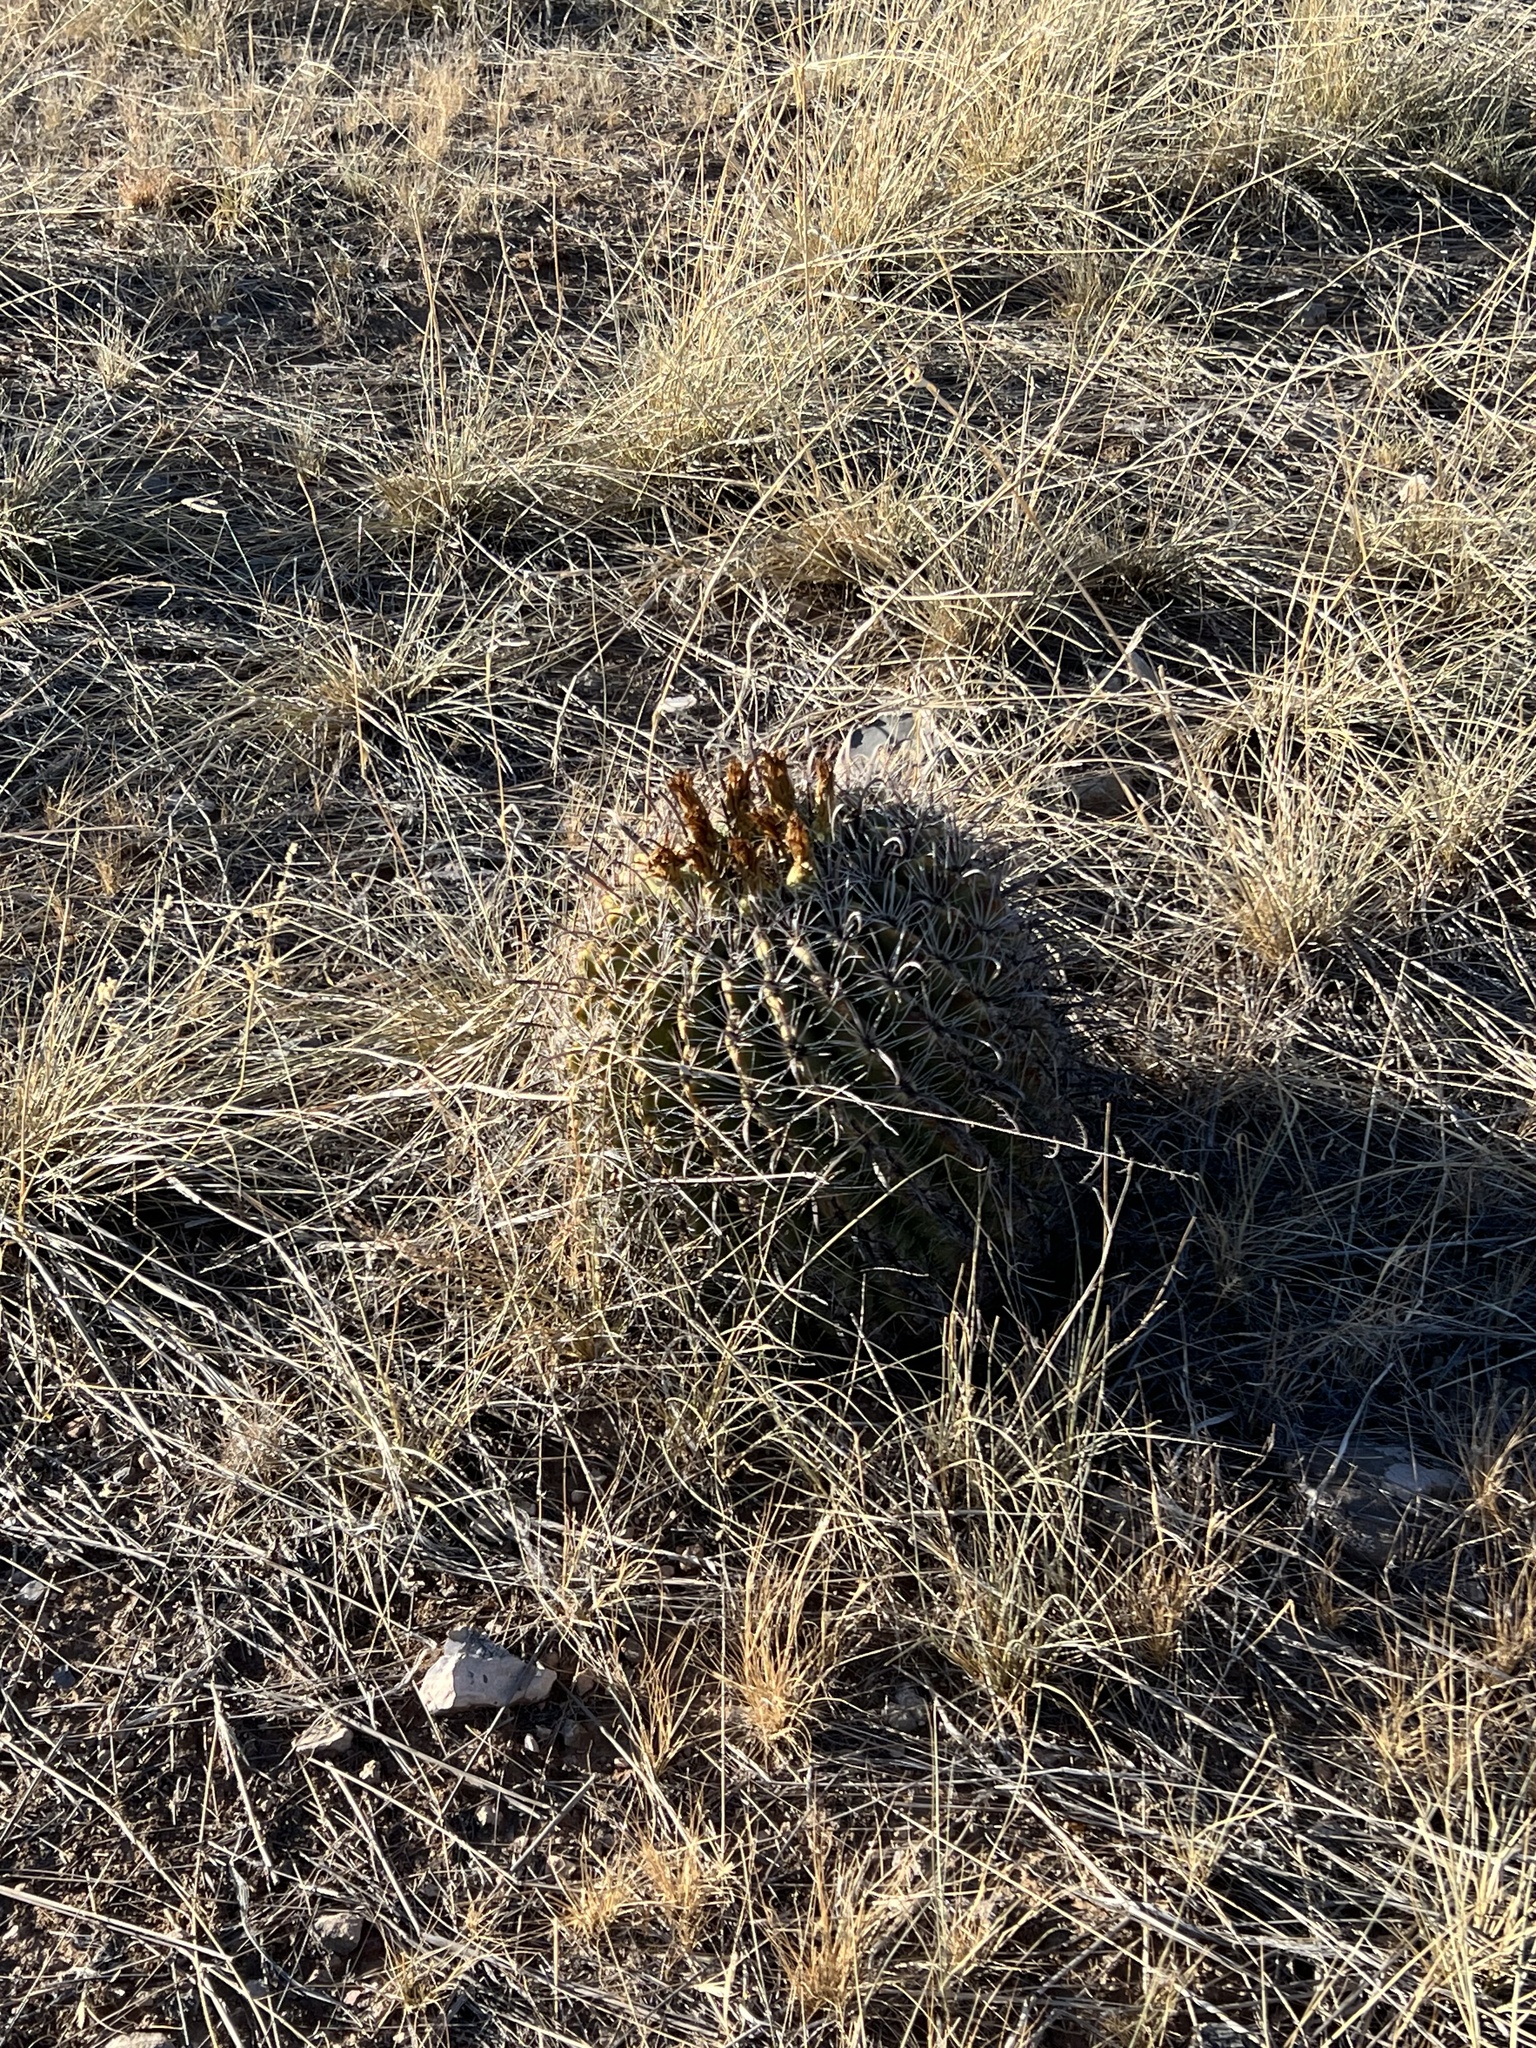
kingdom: Plantae
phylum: Tracheophyta
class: Magnoliopsida
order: Caryophyllales
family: Cactaceae
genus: Ferocactus
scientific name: Ferocactus wislizeni
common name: Candy barrel cactus
